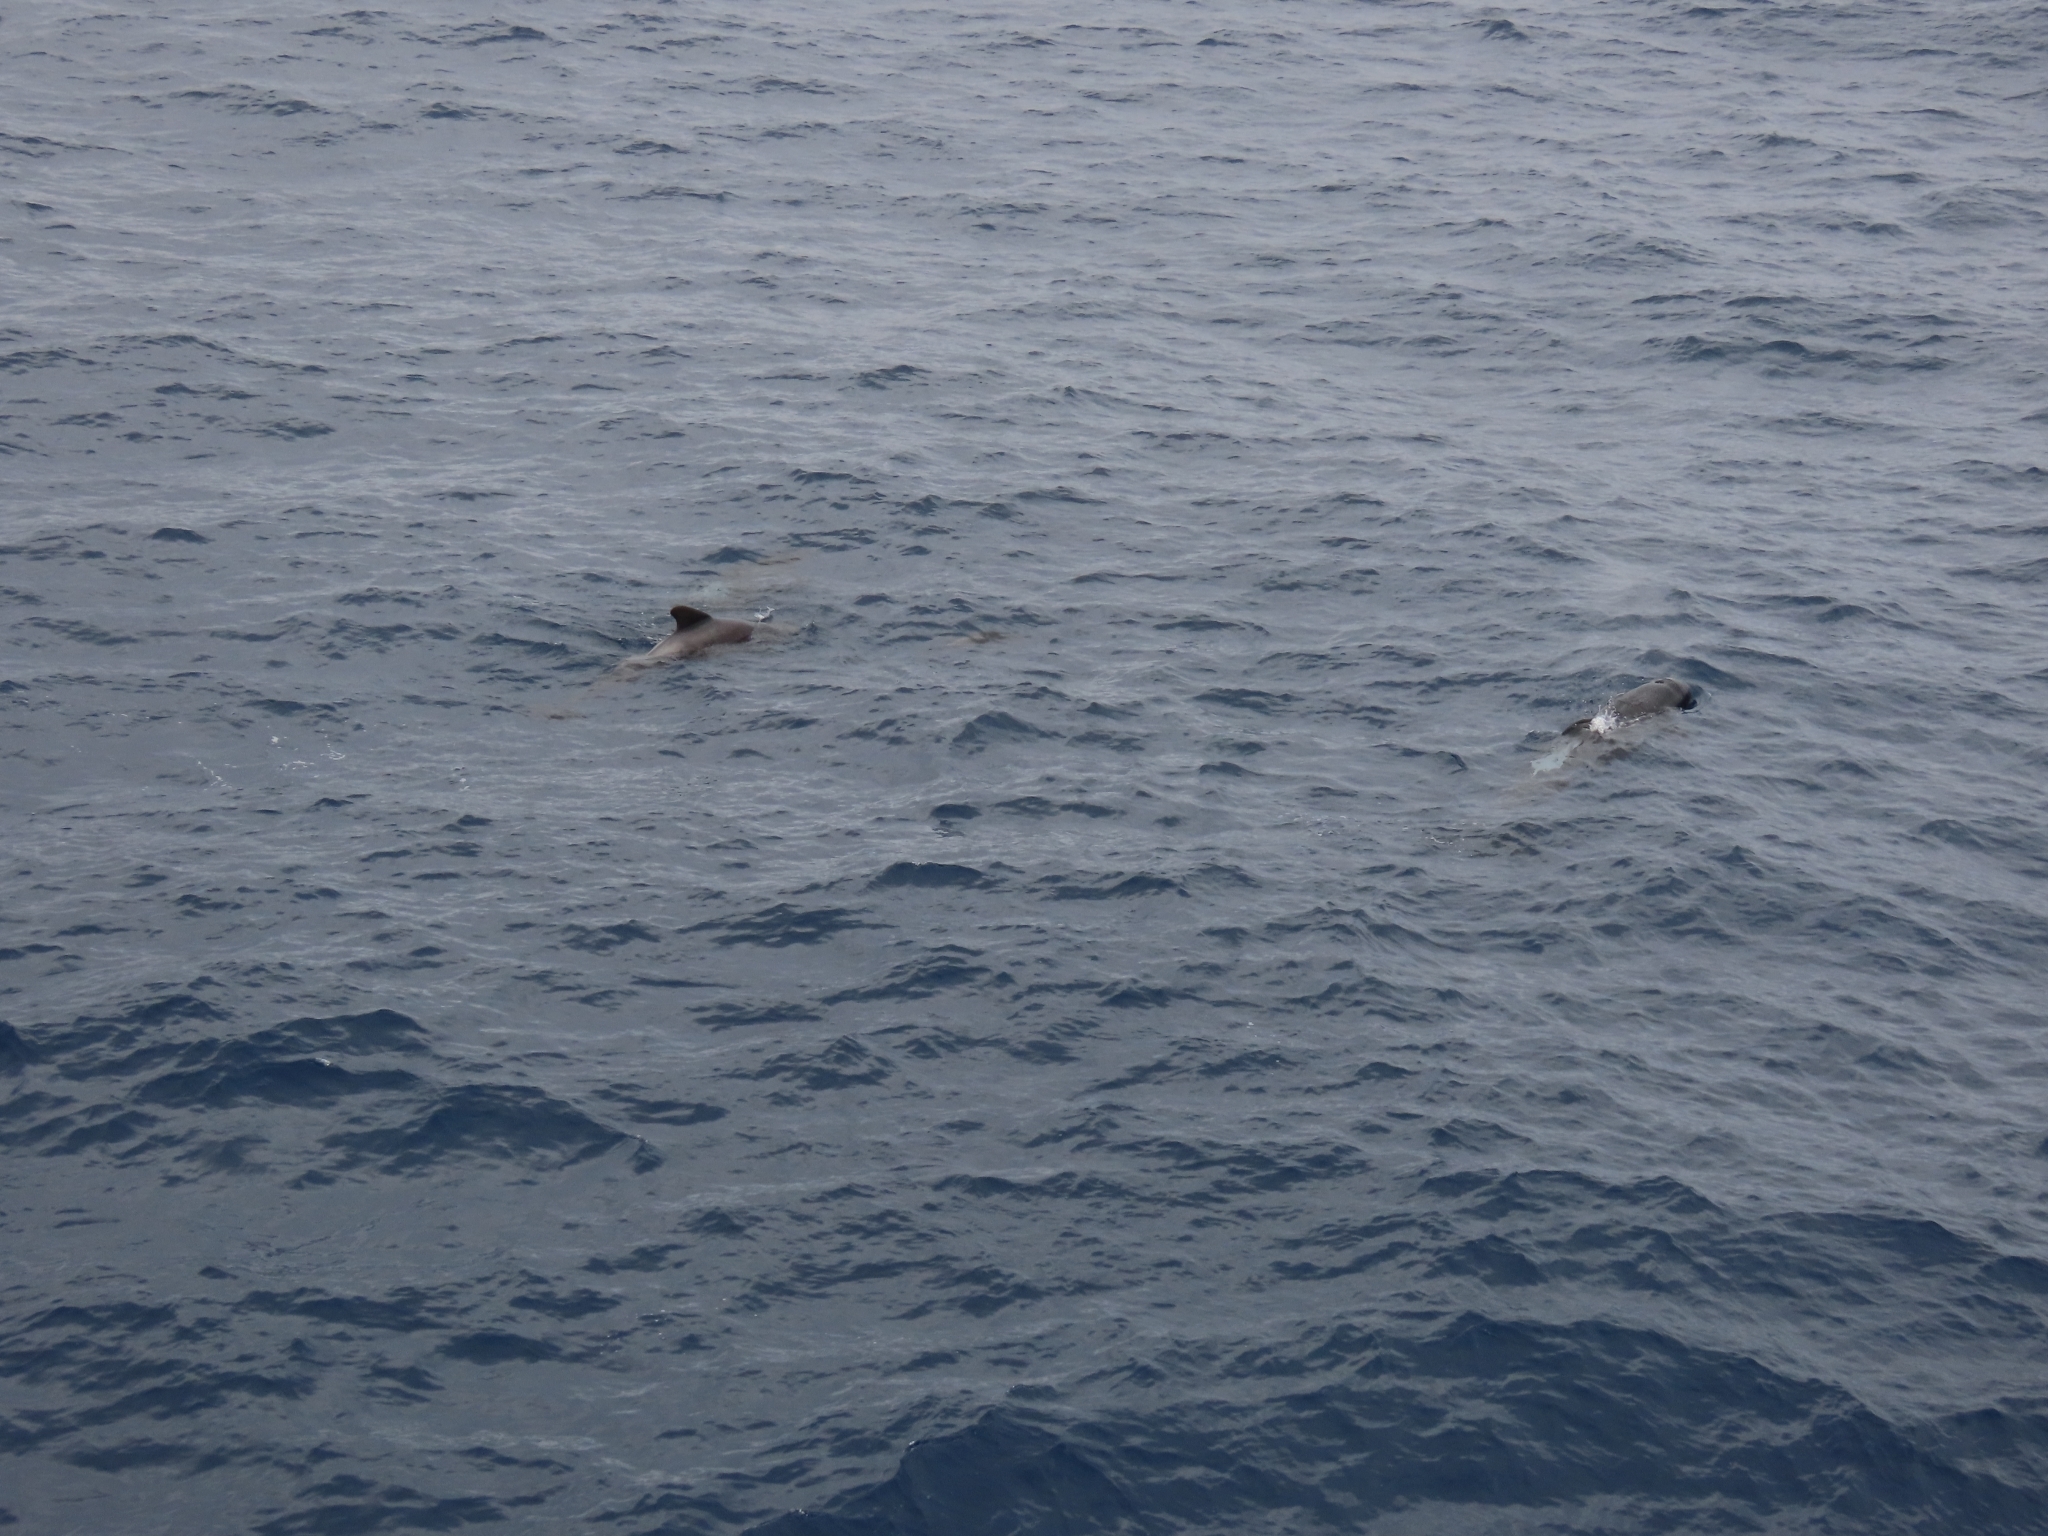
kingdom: Animalia
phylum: Chordata
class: Mammalia
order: Cetacea
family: Delphinidae
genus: Globicephala
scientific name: Globicephala melas
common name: Long-finned pilot whale
